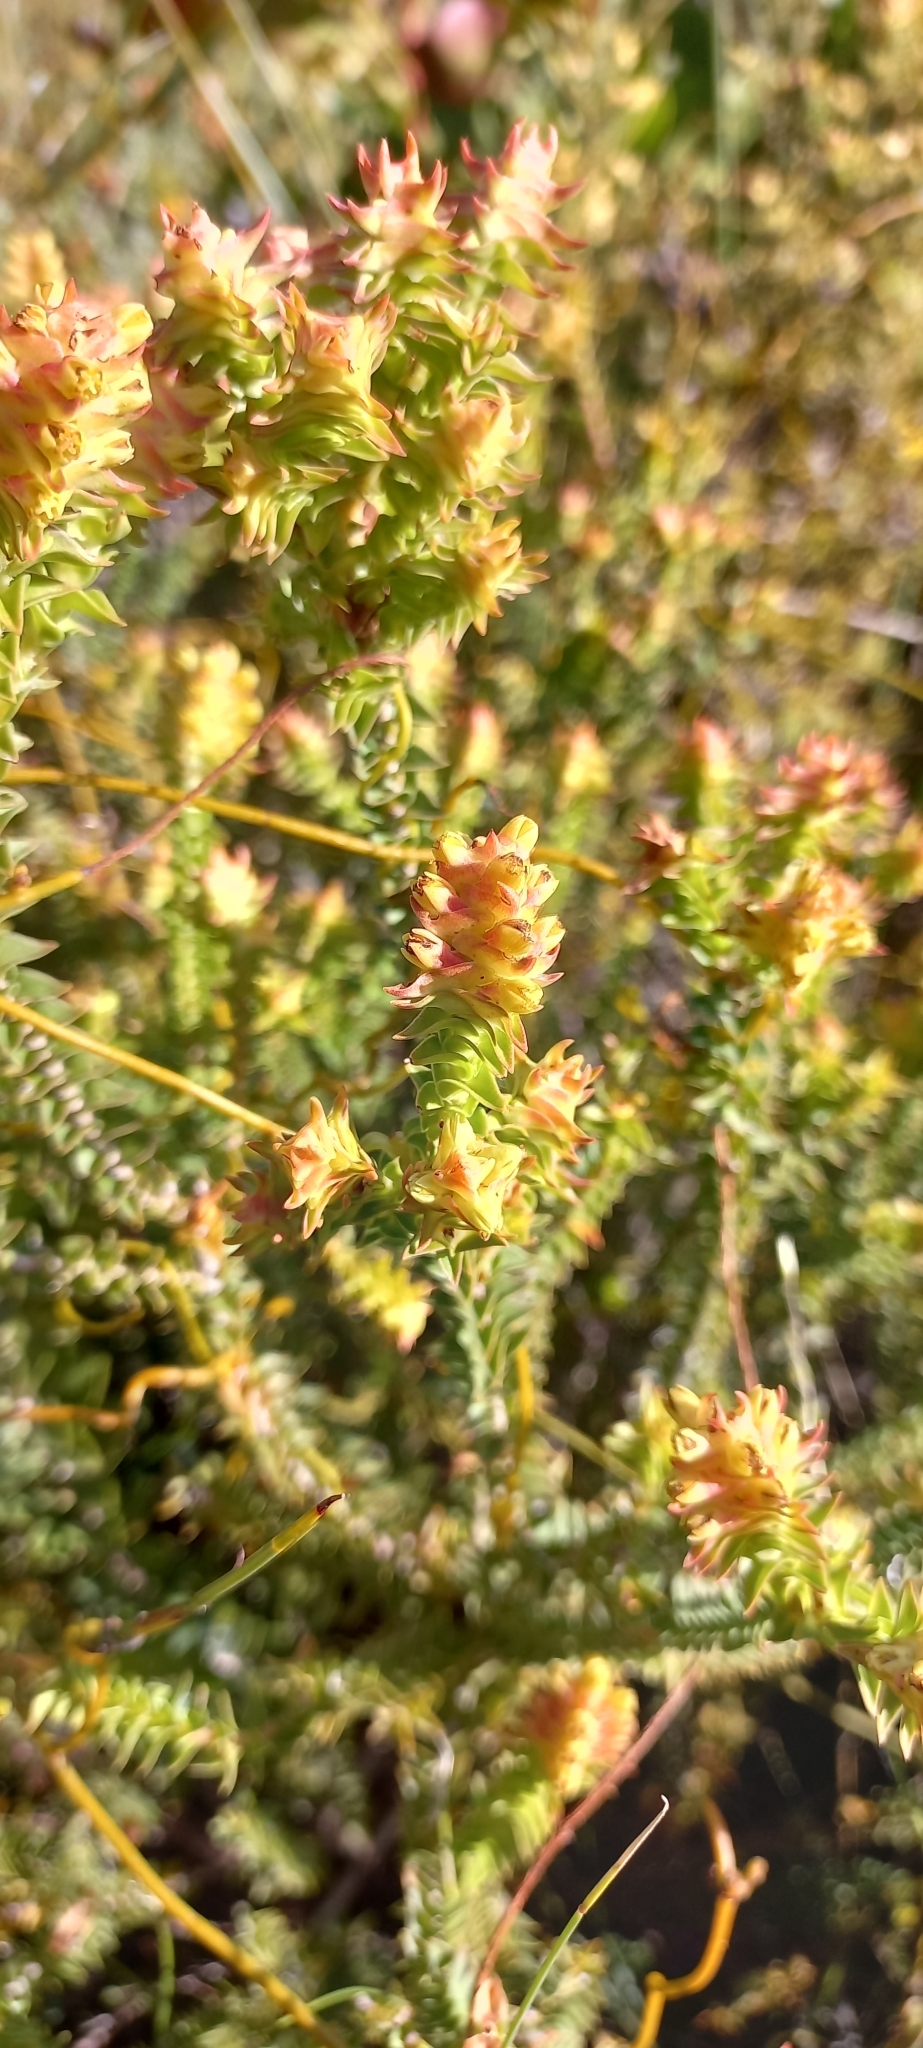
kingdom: Plantae
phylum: Tracheophyta
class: Magnoliopsida
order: Myrtales
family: Penaeaceae
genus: Penaea
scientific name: Penaea mucronata
